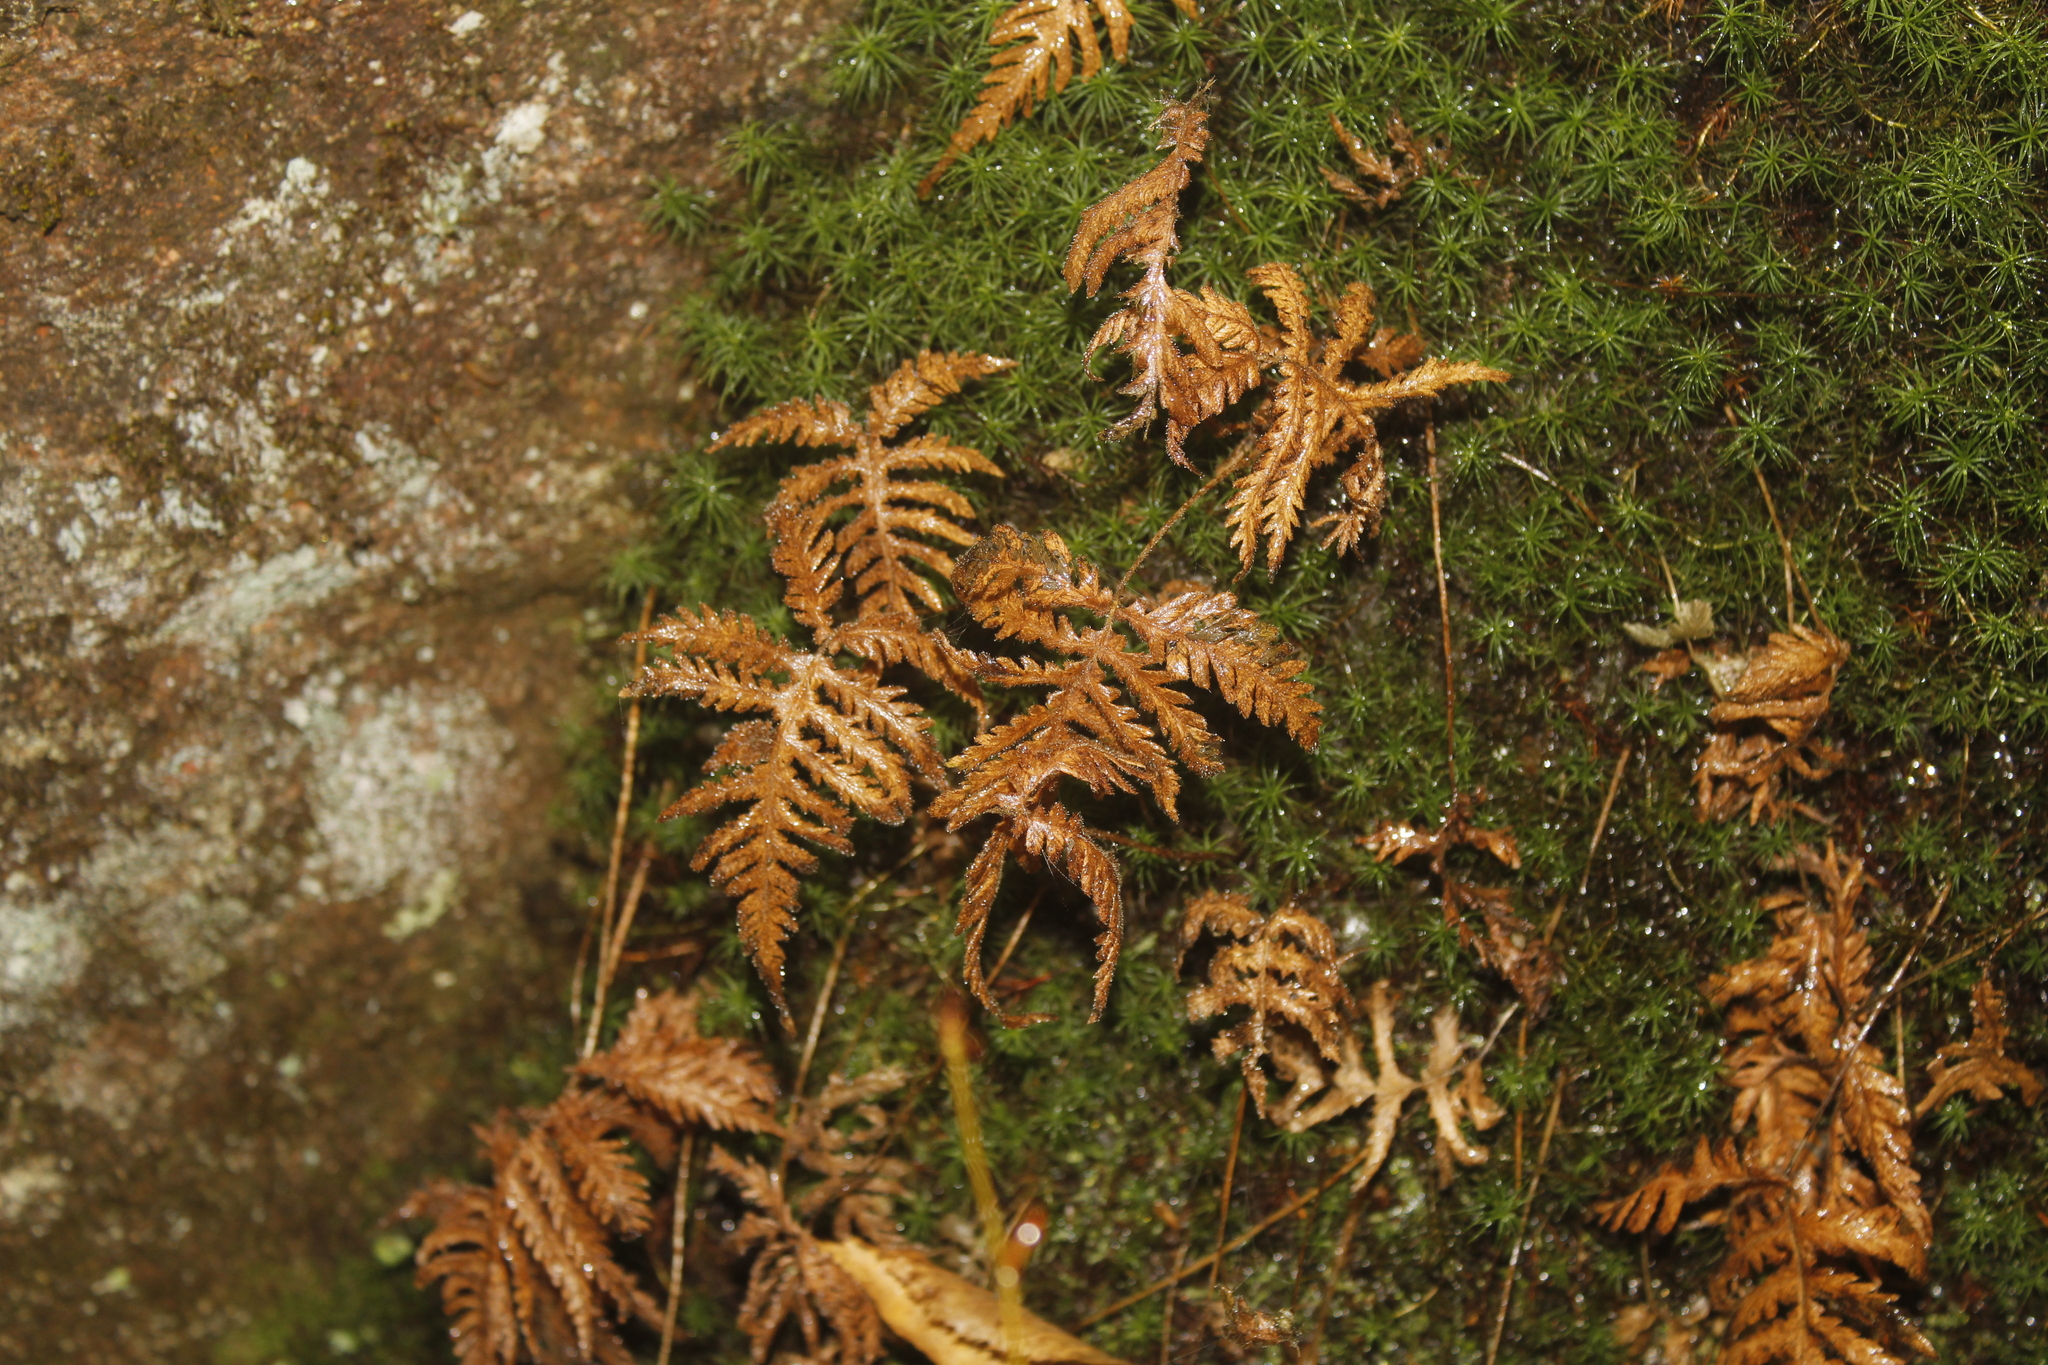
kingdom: Plantae
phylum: Tracheophyta
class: Polypodiopsida
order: Polypodiales
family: Thelypteridaceae
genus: Phegopteris
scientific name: Phegopteris connectilis
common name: Beech fern
